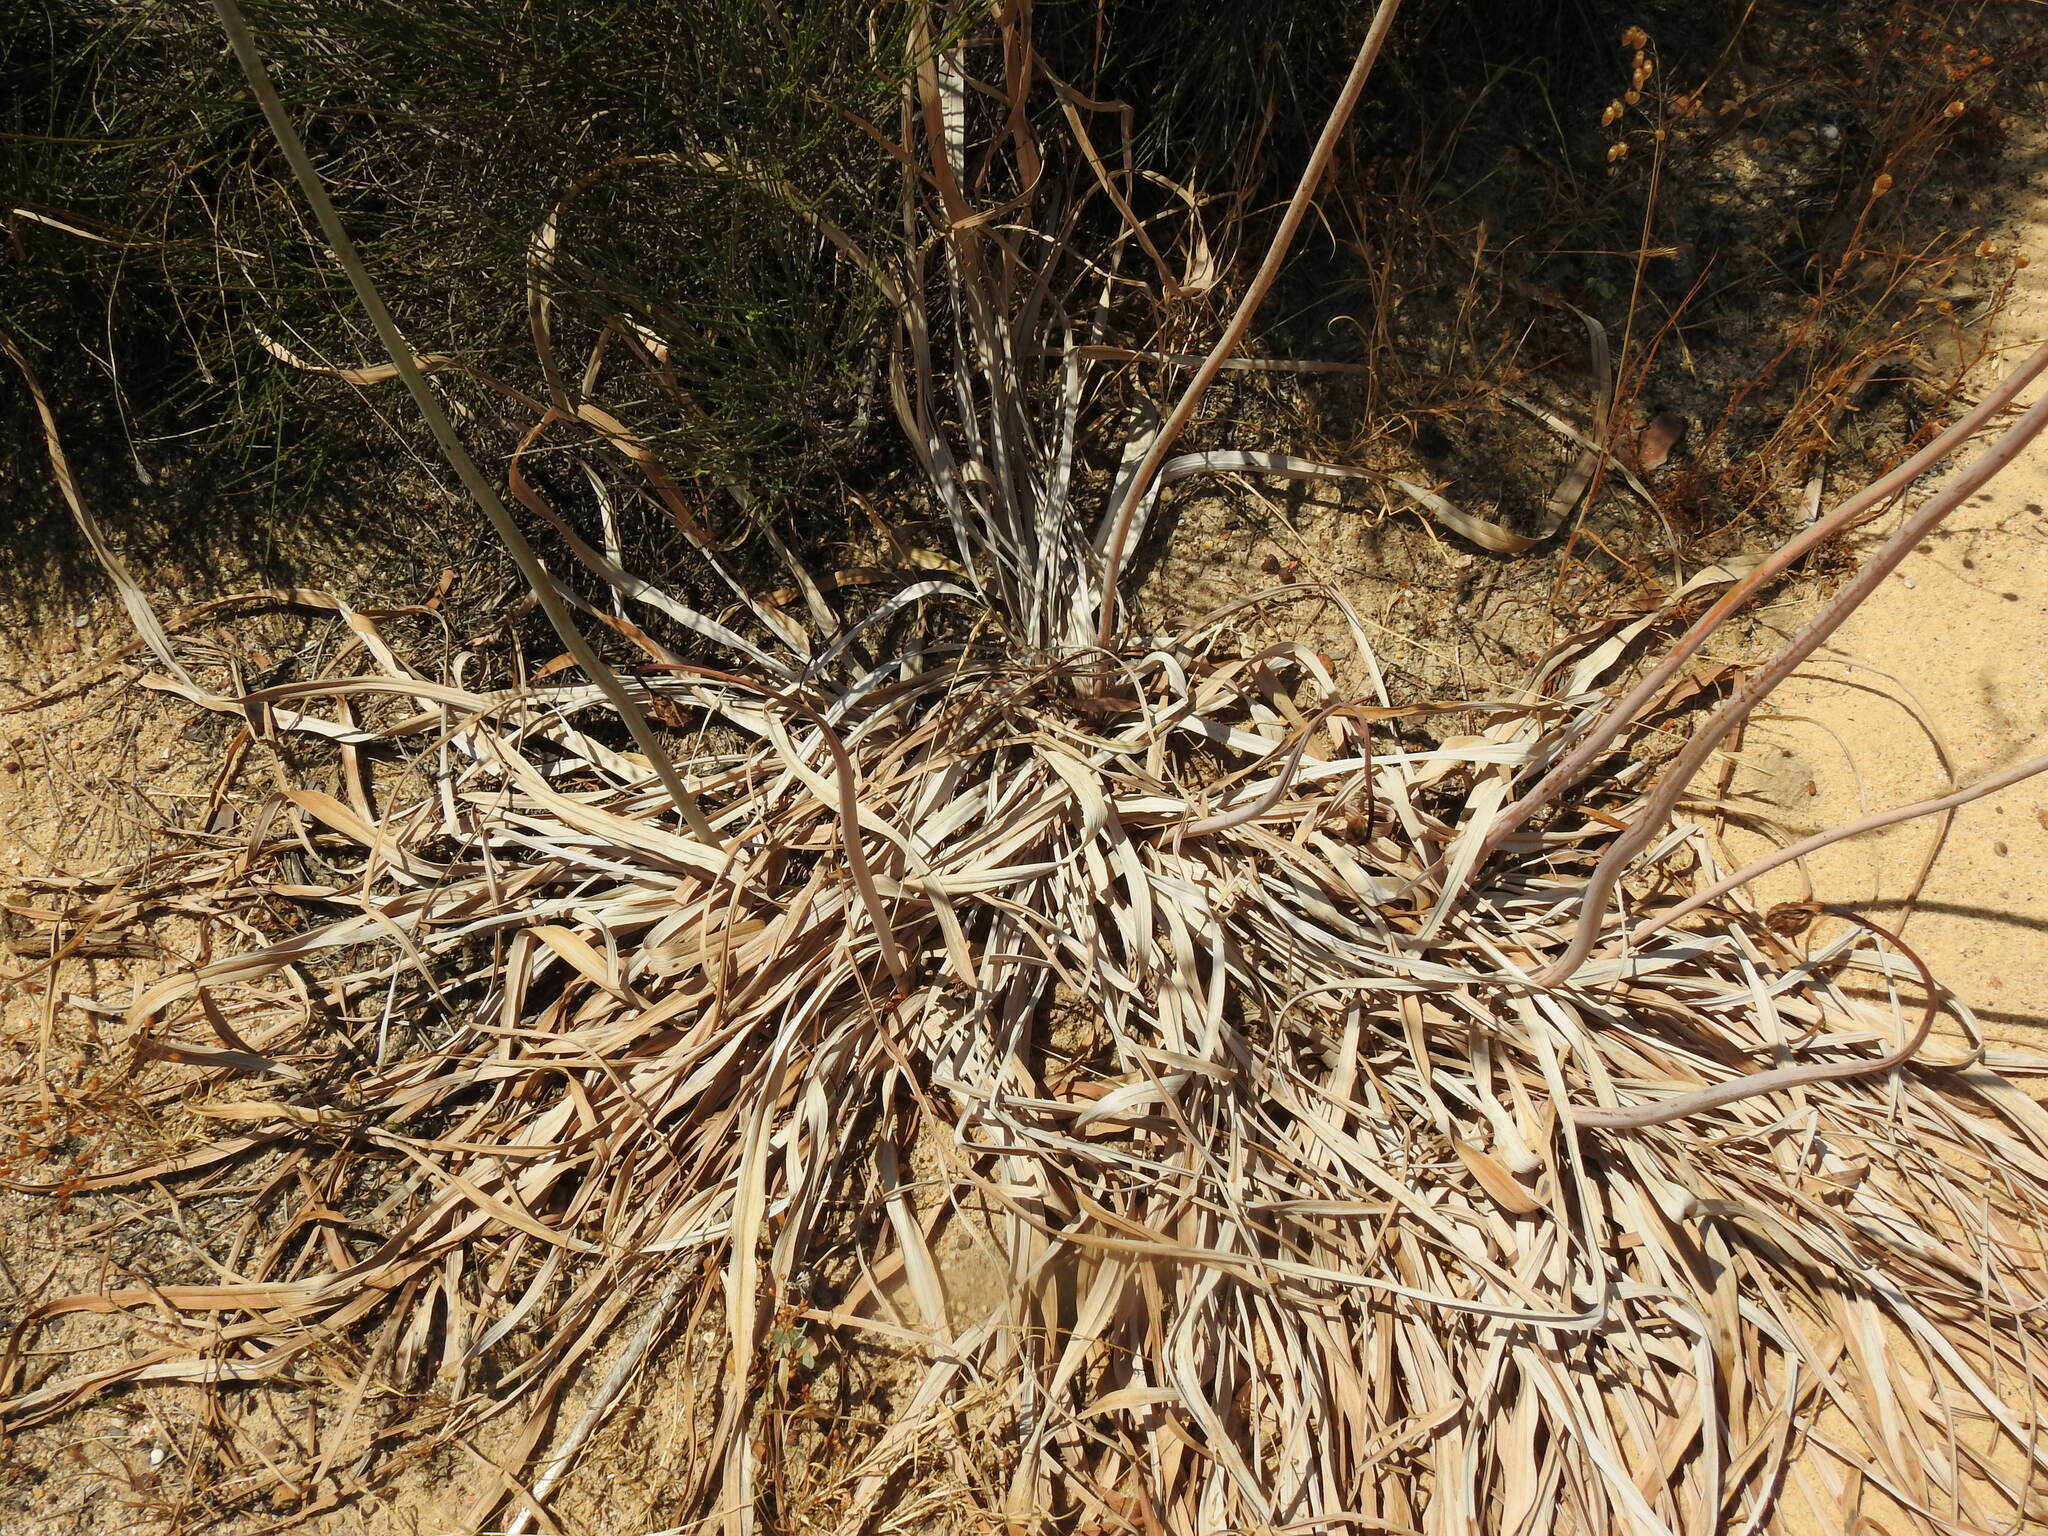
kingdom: Plantae
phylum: Tracheophyta
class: Liliopsida
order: Asparagales
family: Asphodelaceae
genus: Asphodelus
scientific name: Asphodelus serotinus
